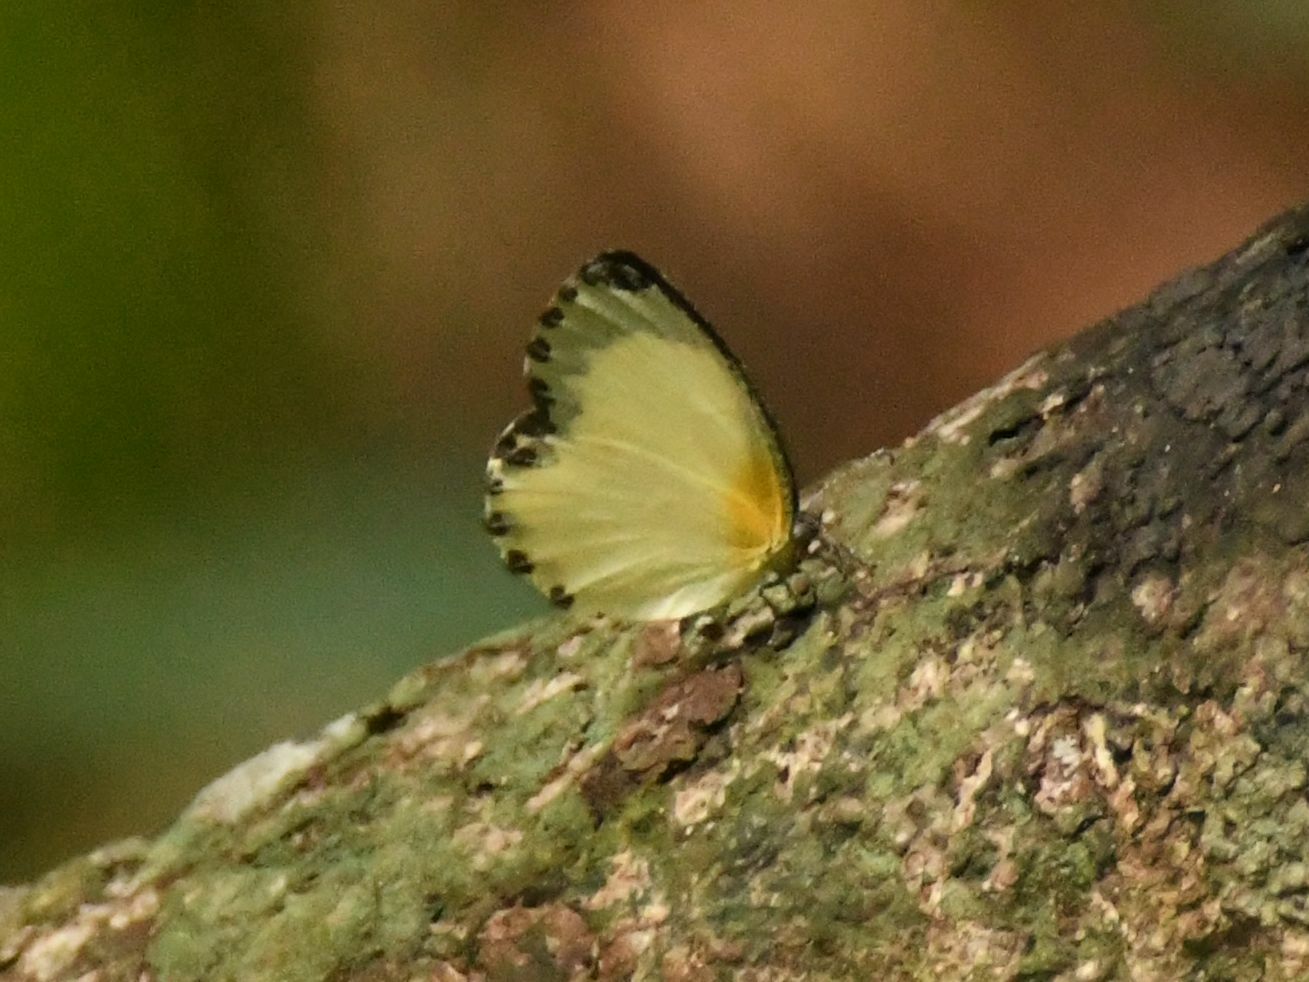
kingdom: Animalia
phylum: Arthropoda
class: Insecta
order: Lepidoptera
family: Lycaenidae
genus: Citrinophila
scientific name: Citrinophila erastus
